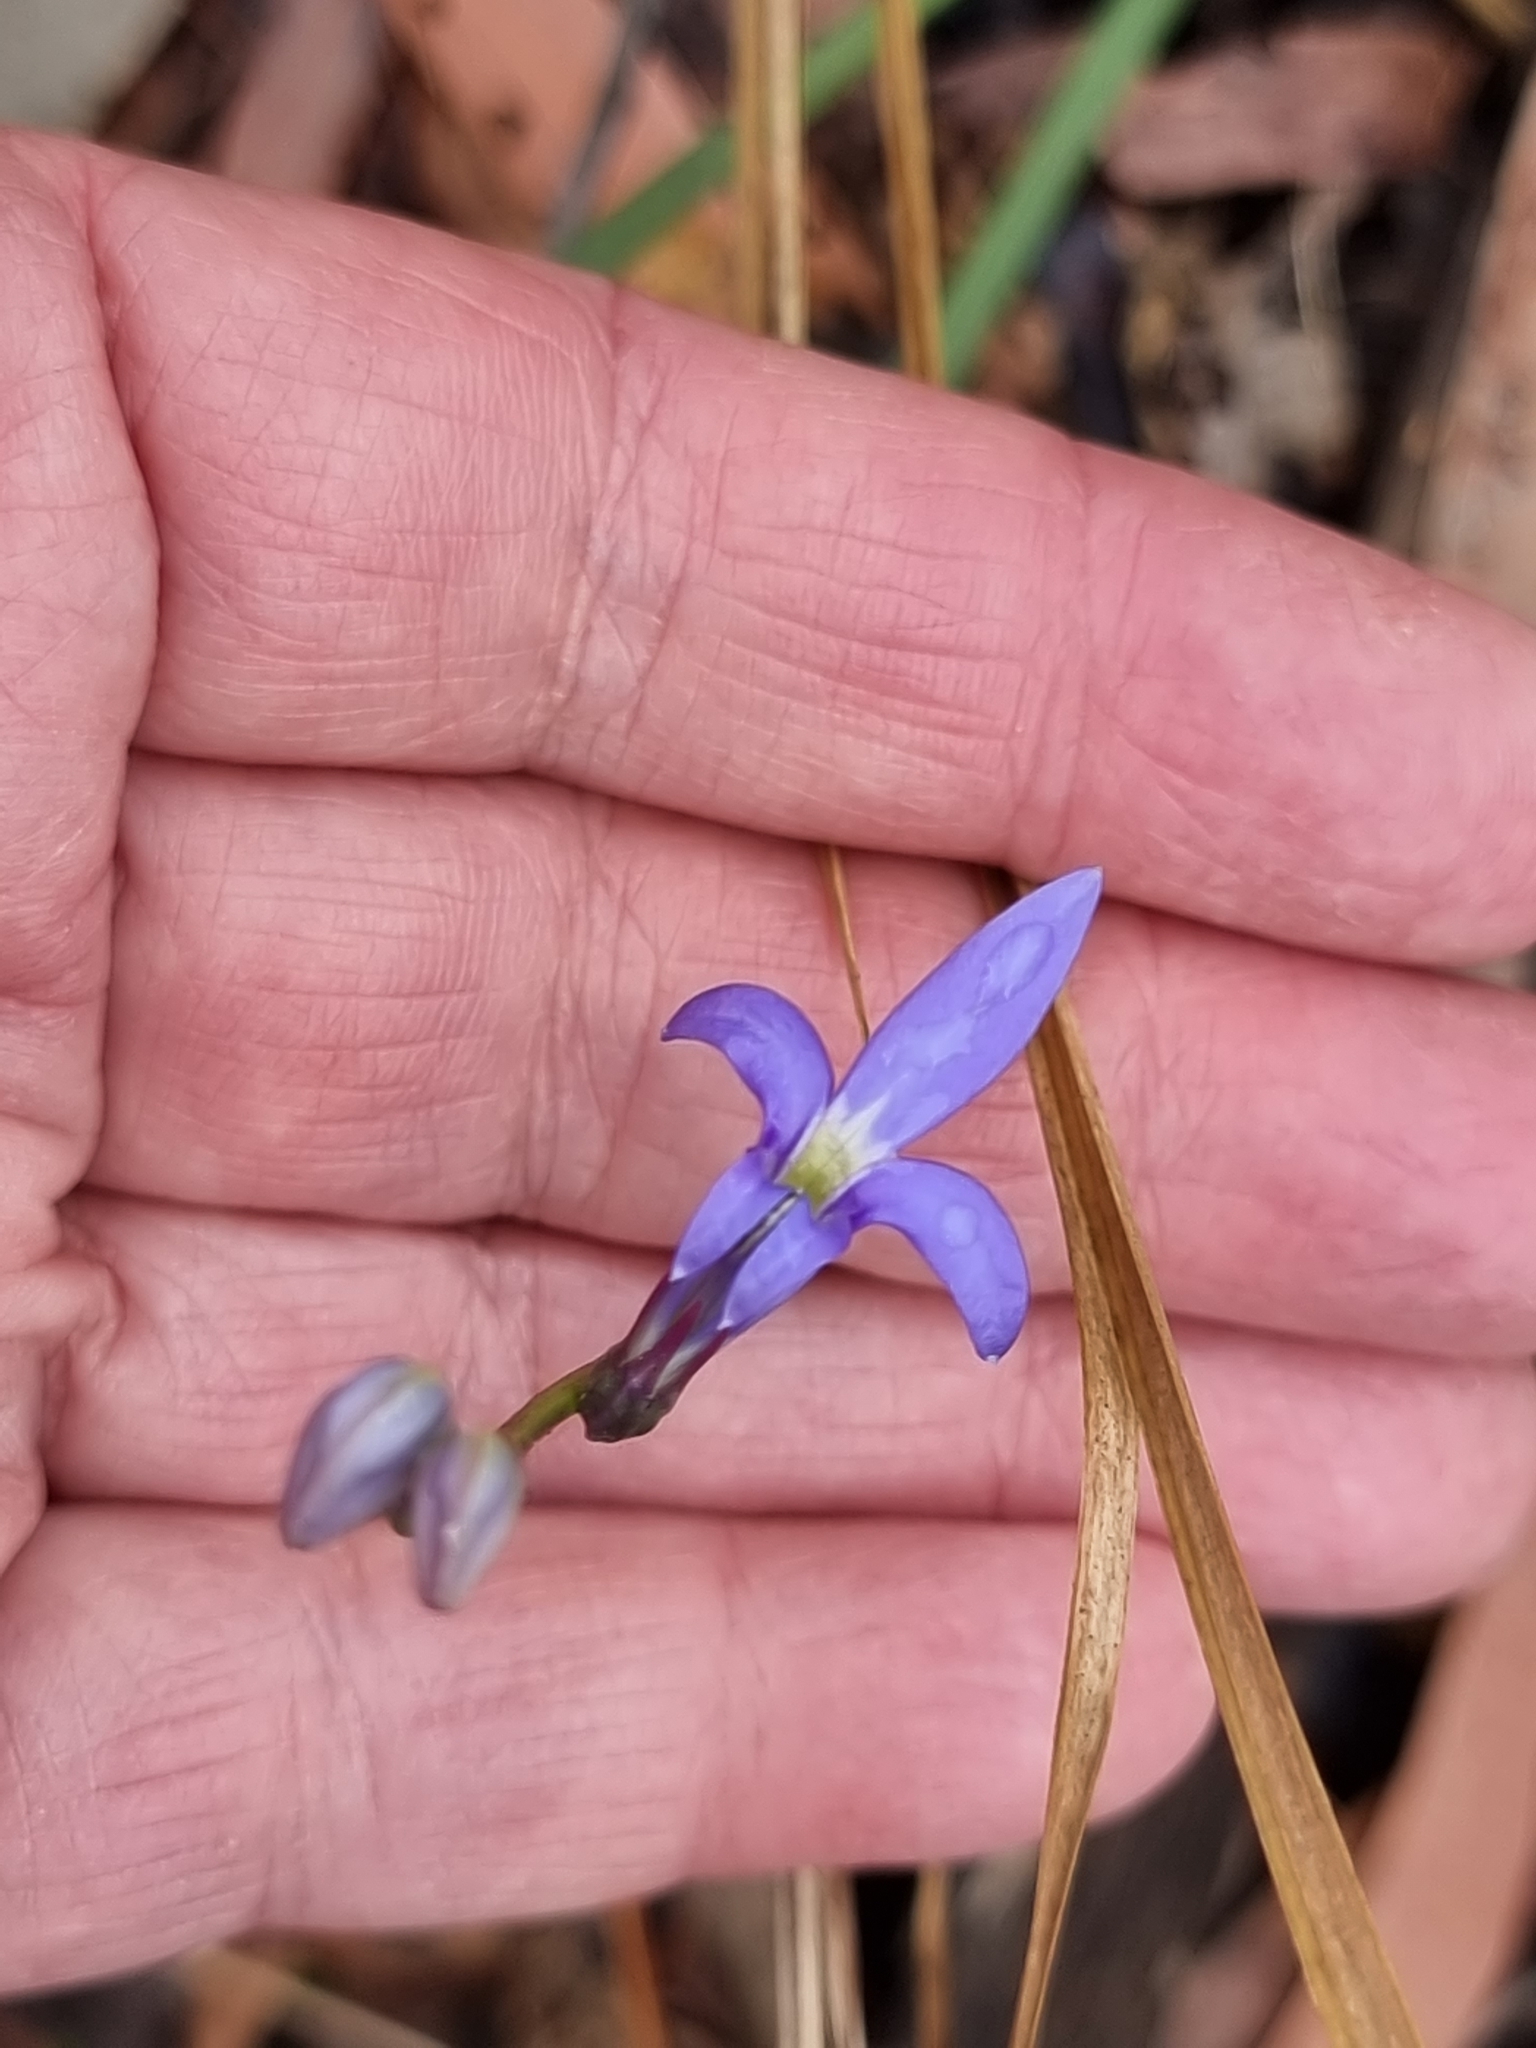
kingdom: Plantae
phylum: Tracheophyta
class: Magnoliopsida
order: Asterales
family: Campanulaceae
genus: Lobelia
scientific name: Lobelia gibbosa
